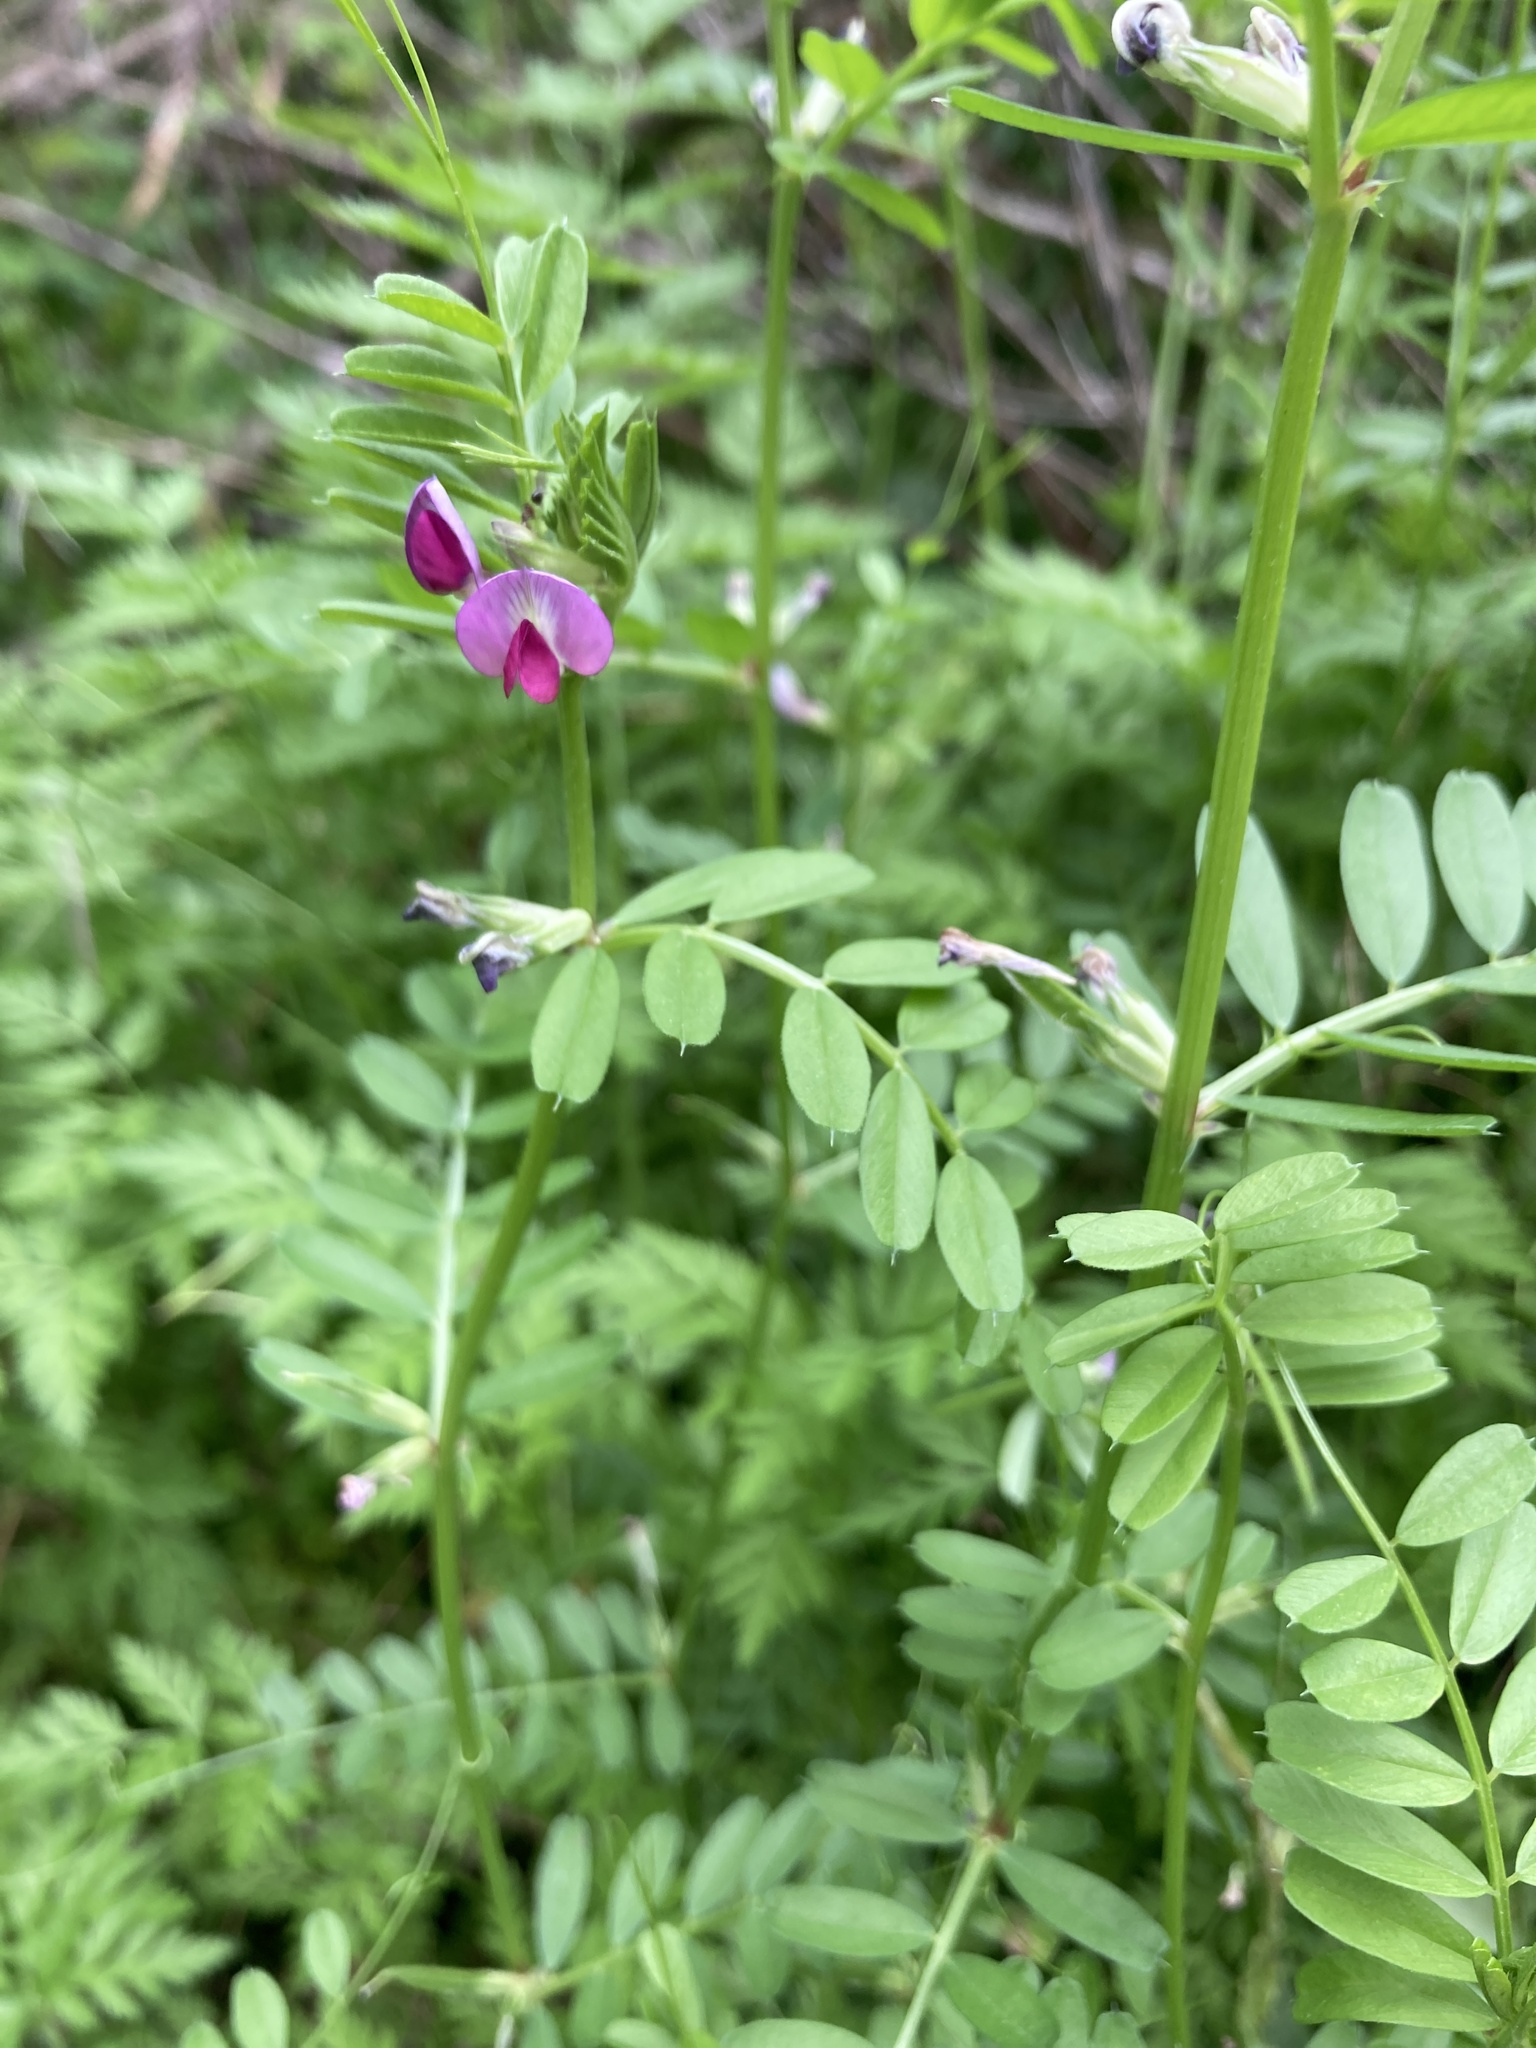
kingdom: Plantae
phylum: Tracheophyta
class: Magnoliopsida
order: Fabales
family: Fabaceae
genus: Vicia
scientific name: Vicia sativa
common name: Garden vetch
